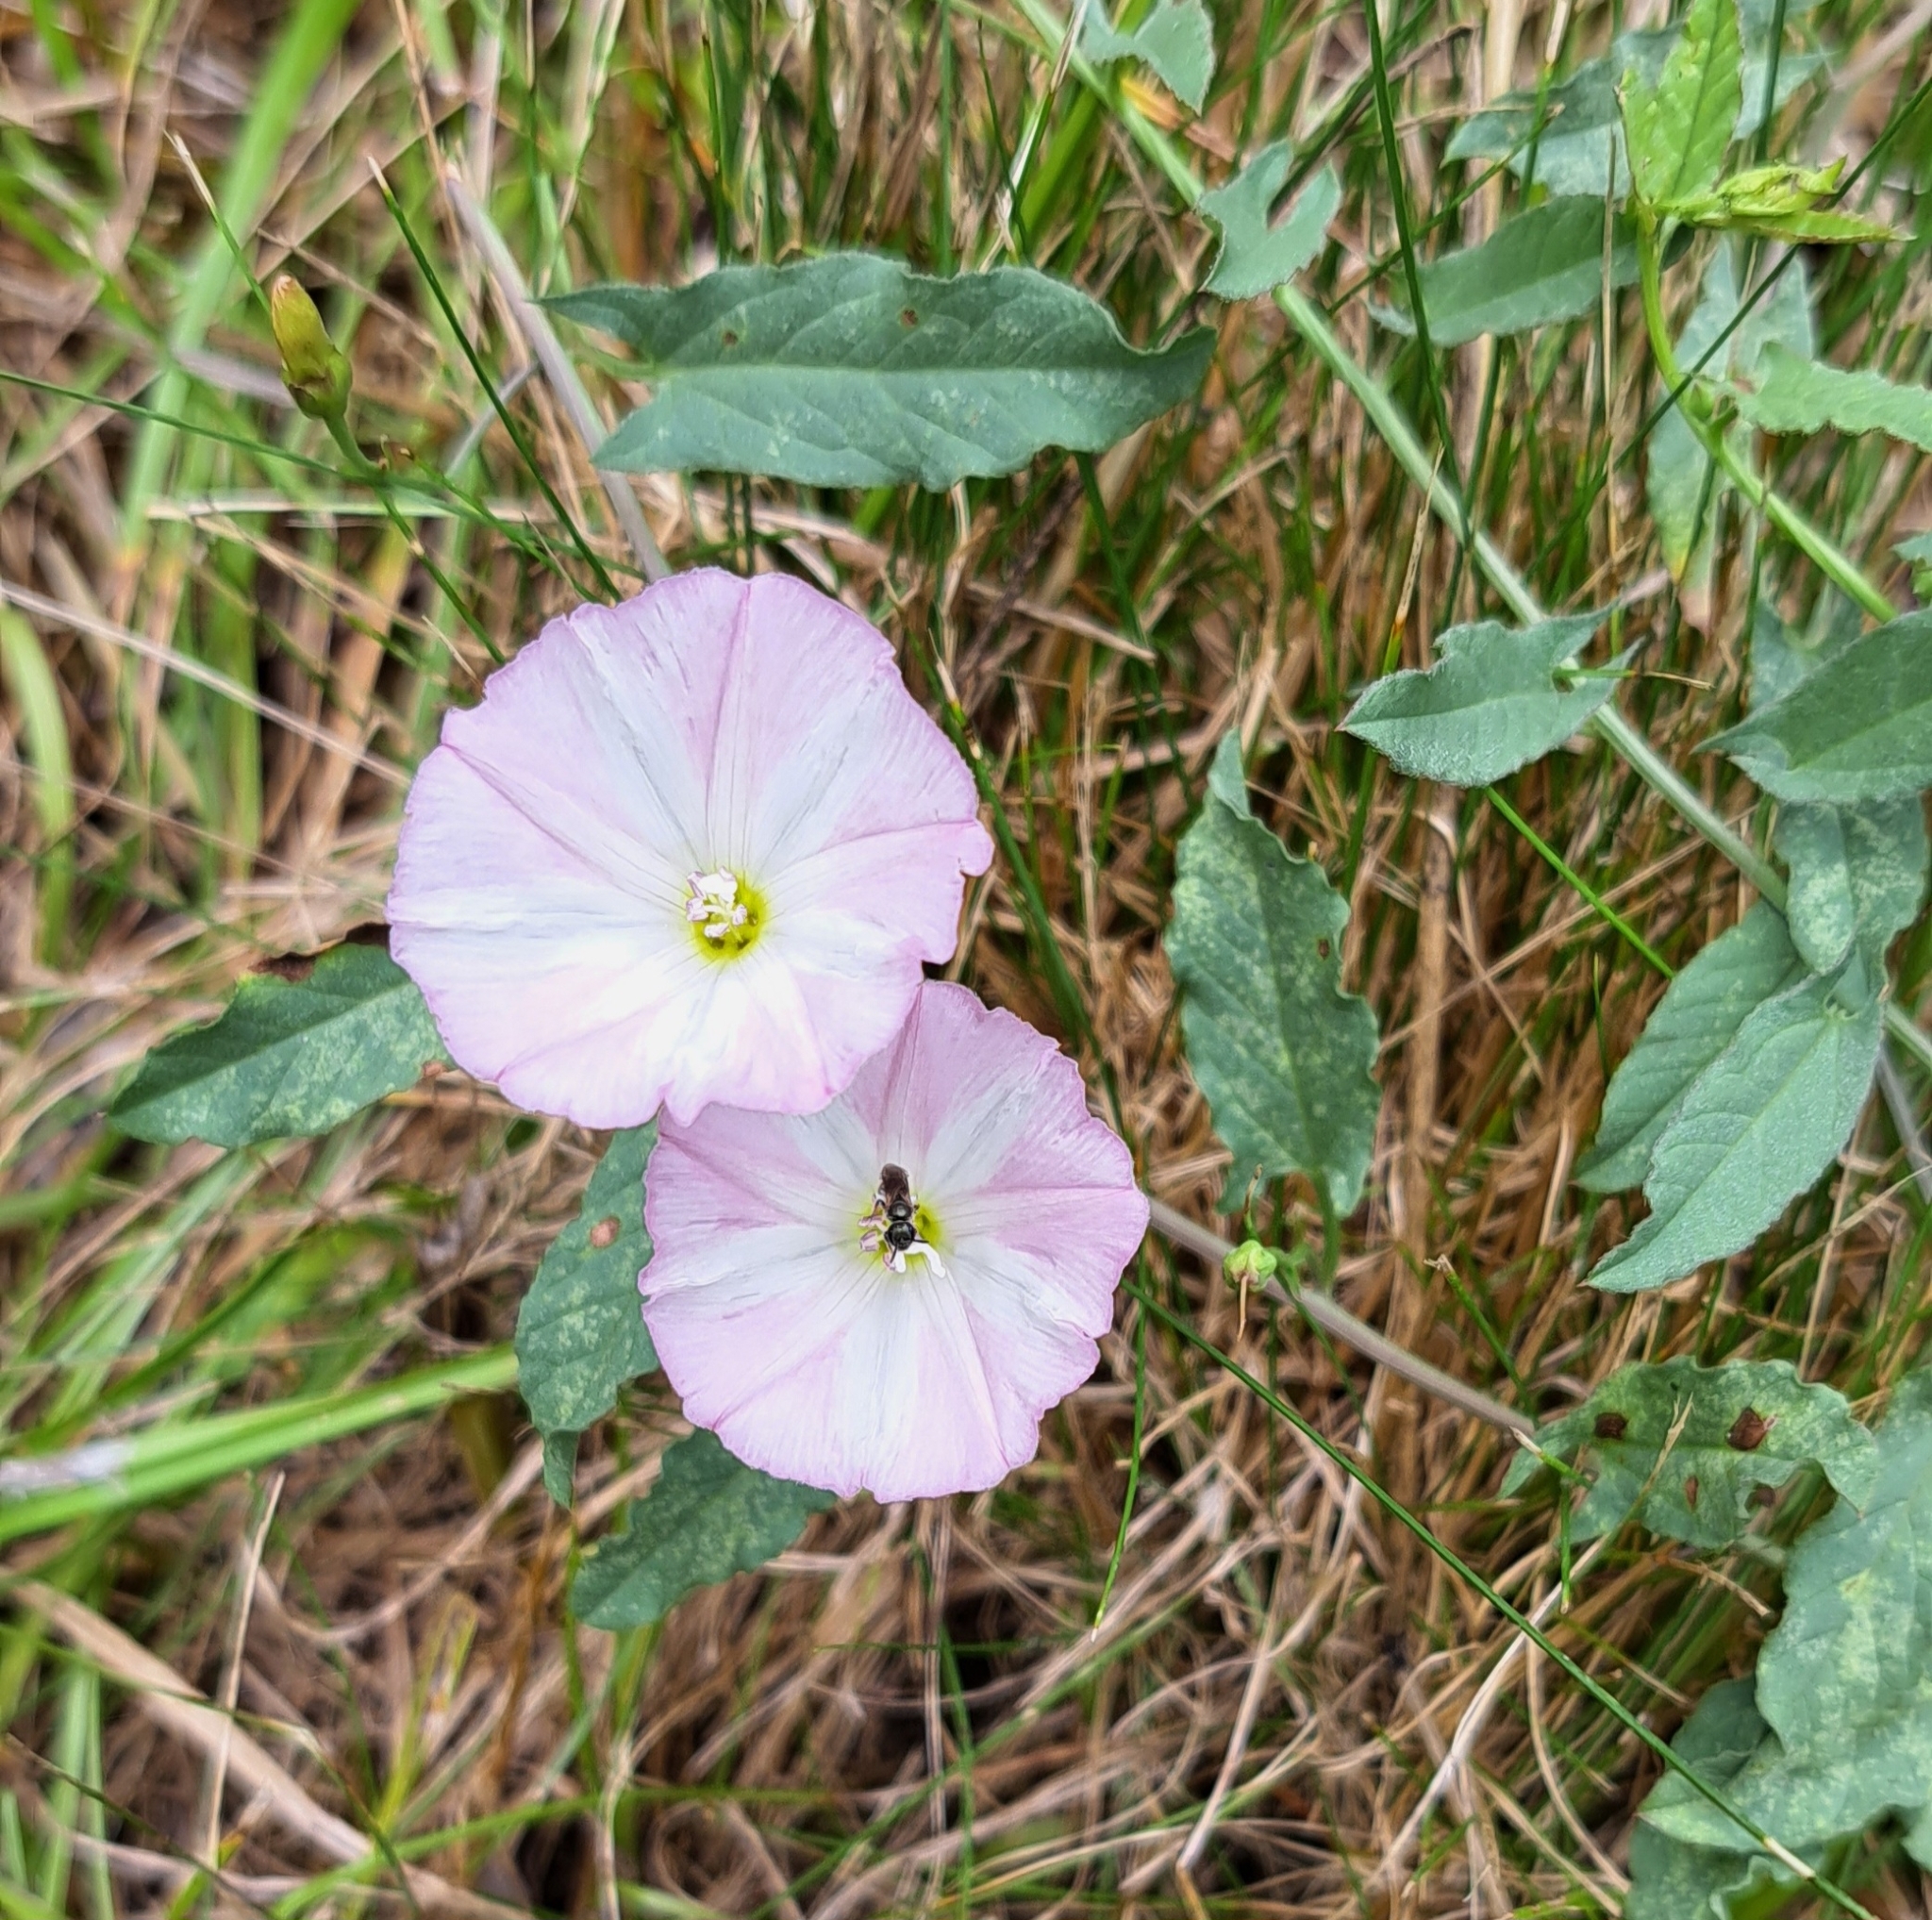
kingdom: Plantae
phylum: Tracheophyta
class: Magnoliopsida
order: Solanales
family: Convolvulaceae
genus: Convolvulus
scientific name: Convolvulus arvensis
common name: Field bindweed
